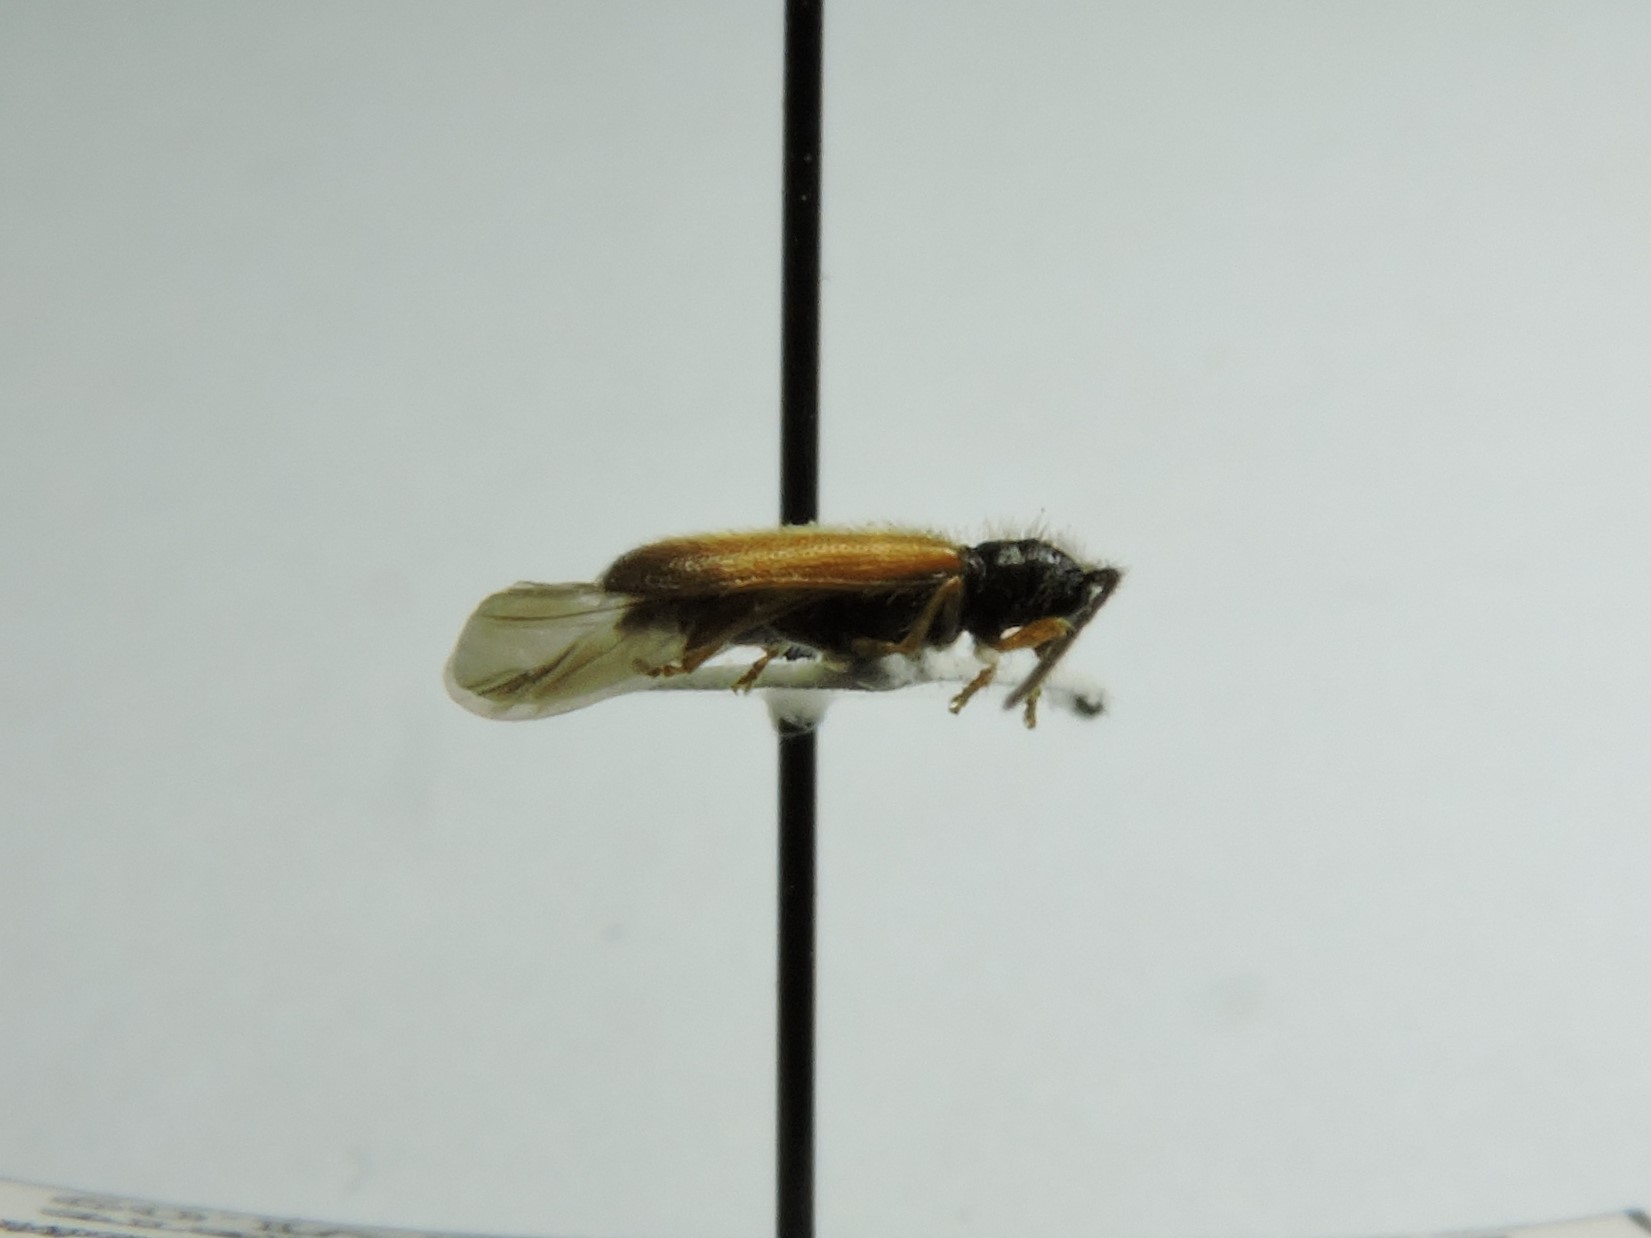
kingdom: Animalia
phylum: Arthropoda
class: Insecta
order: Coleoptera
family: Cerambycidae
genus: Tetrops
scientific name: Tetrops praeustus
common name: Plum beetle
